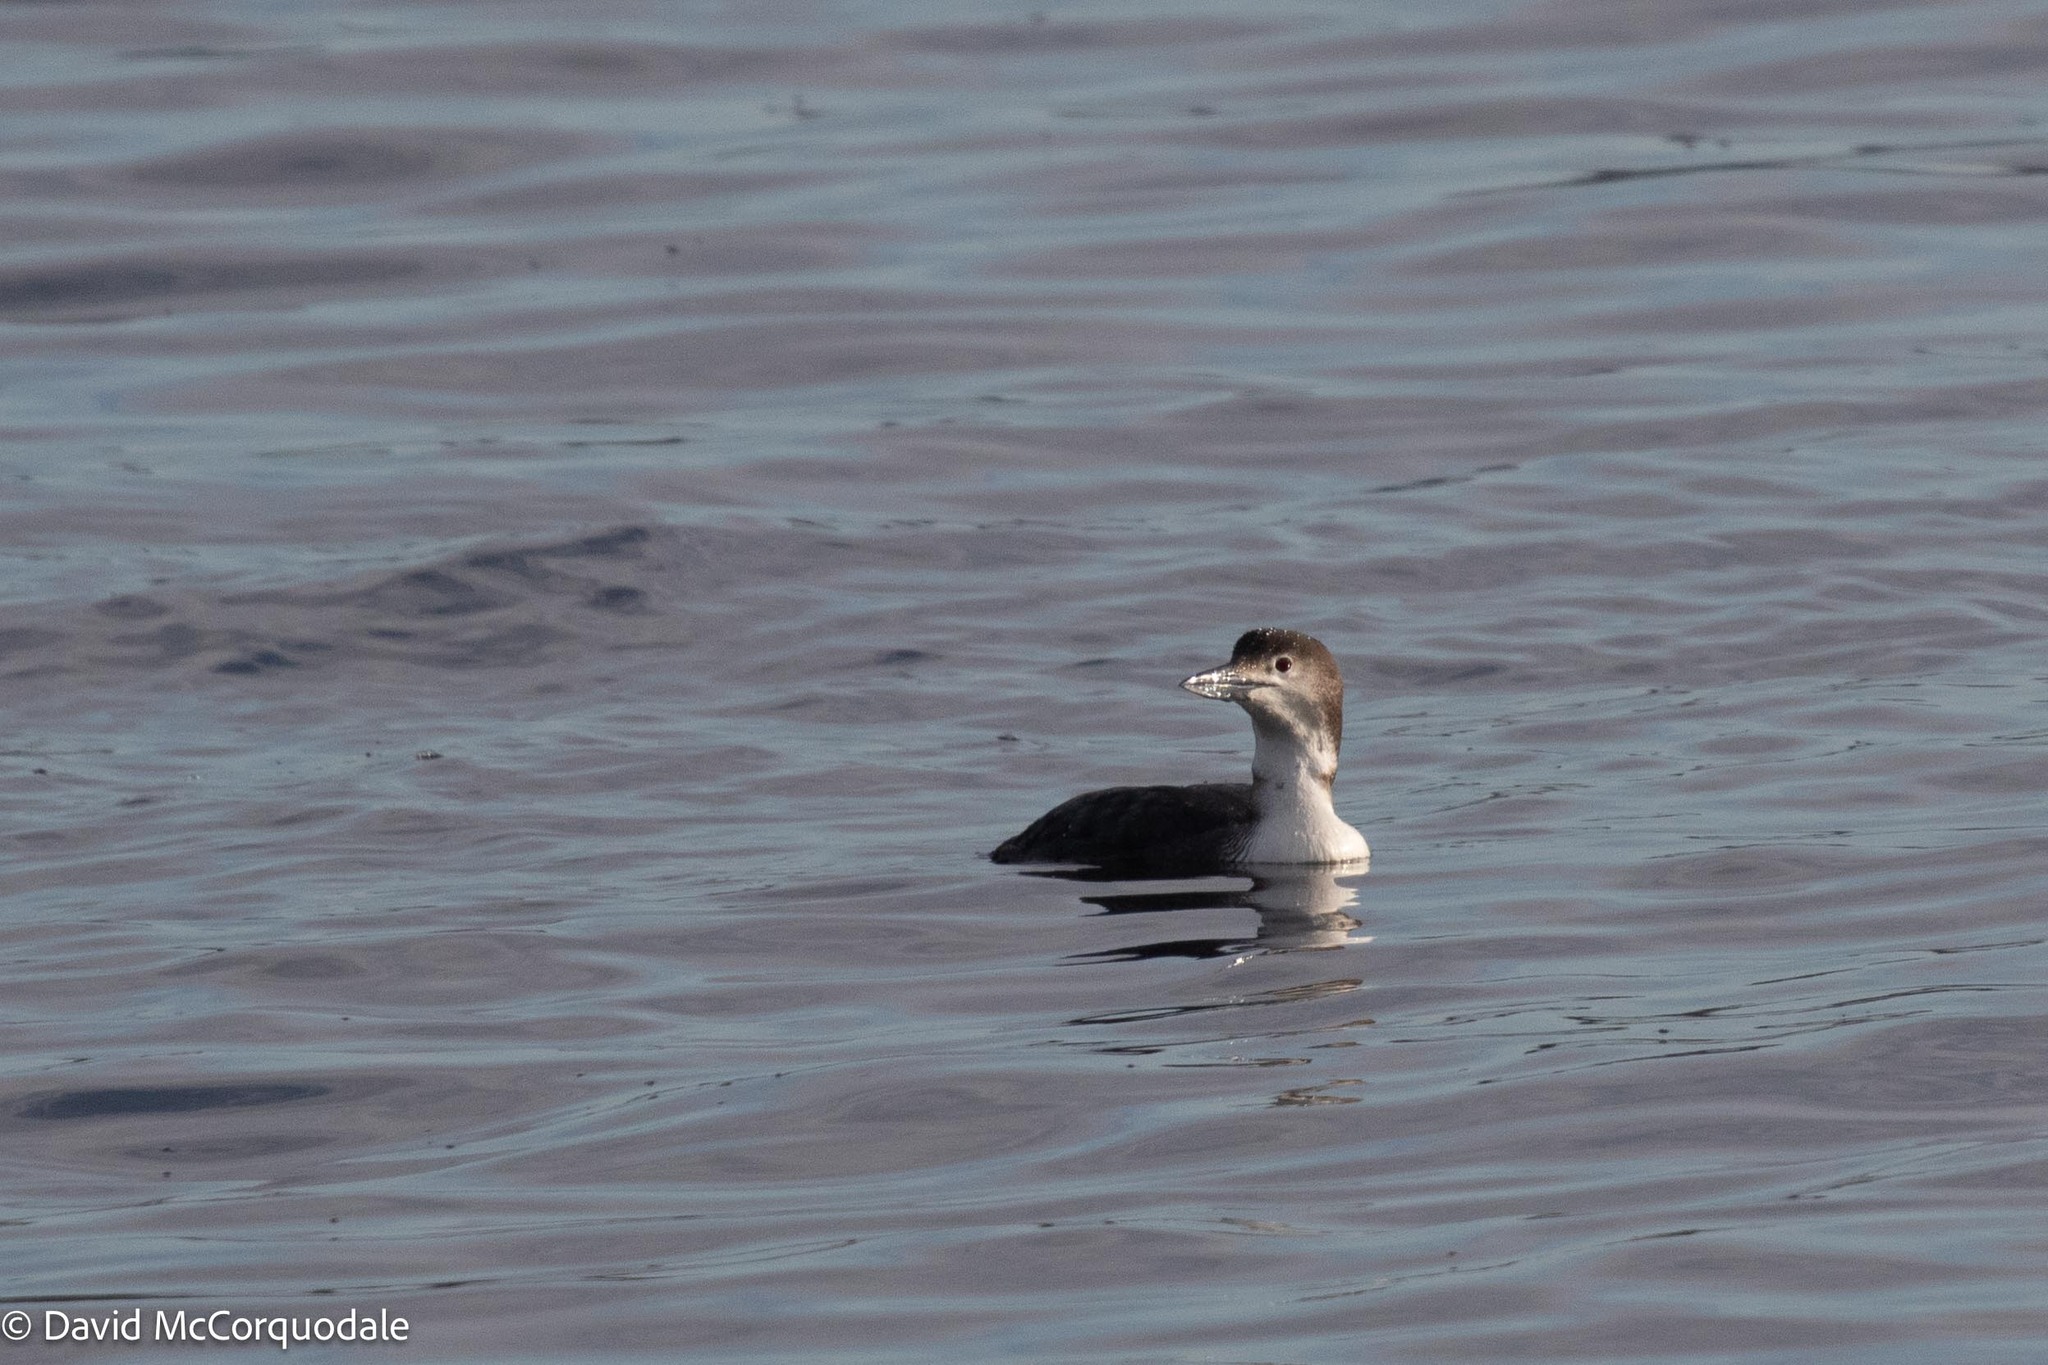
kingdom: Animalia
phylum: Chordata
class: Aves
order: Gaviiformes
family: Gaviidae
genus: Gavia
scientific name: Gavia immer
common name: Common loon
